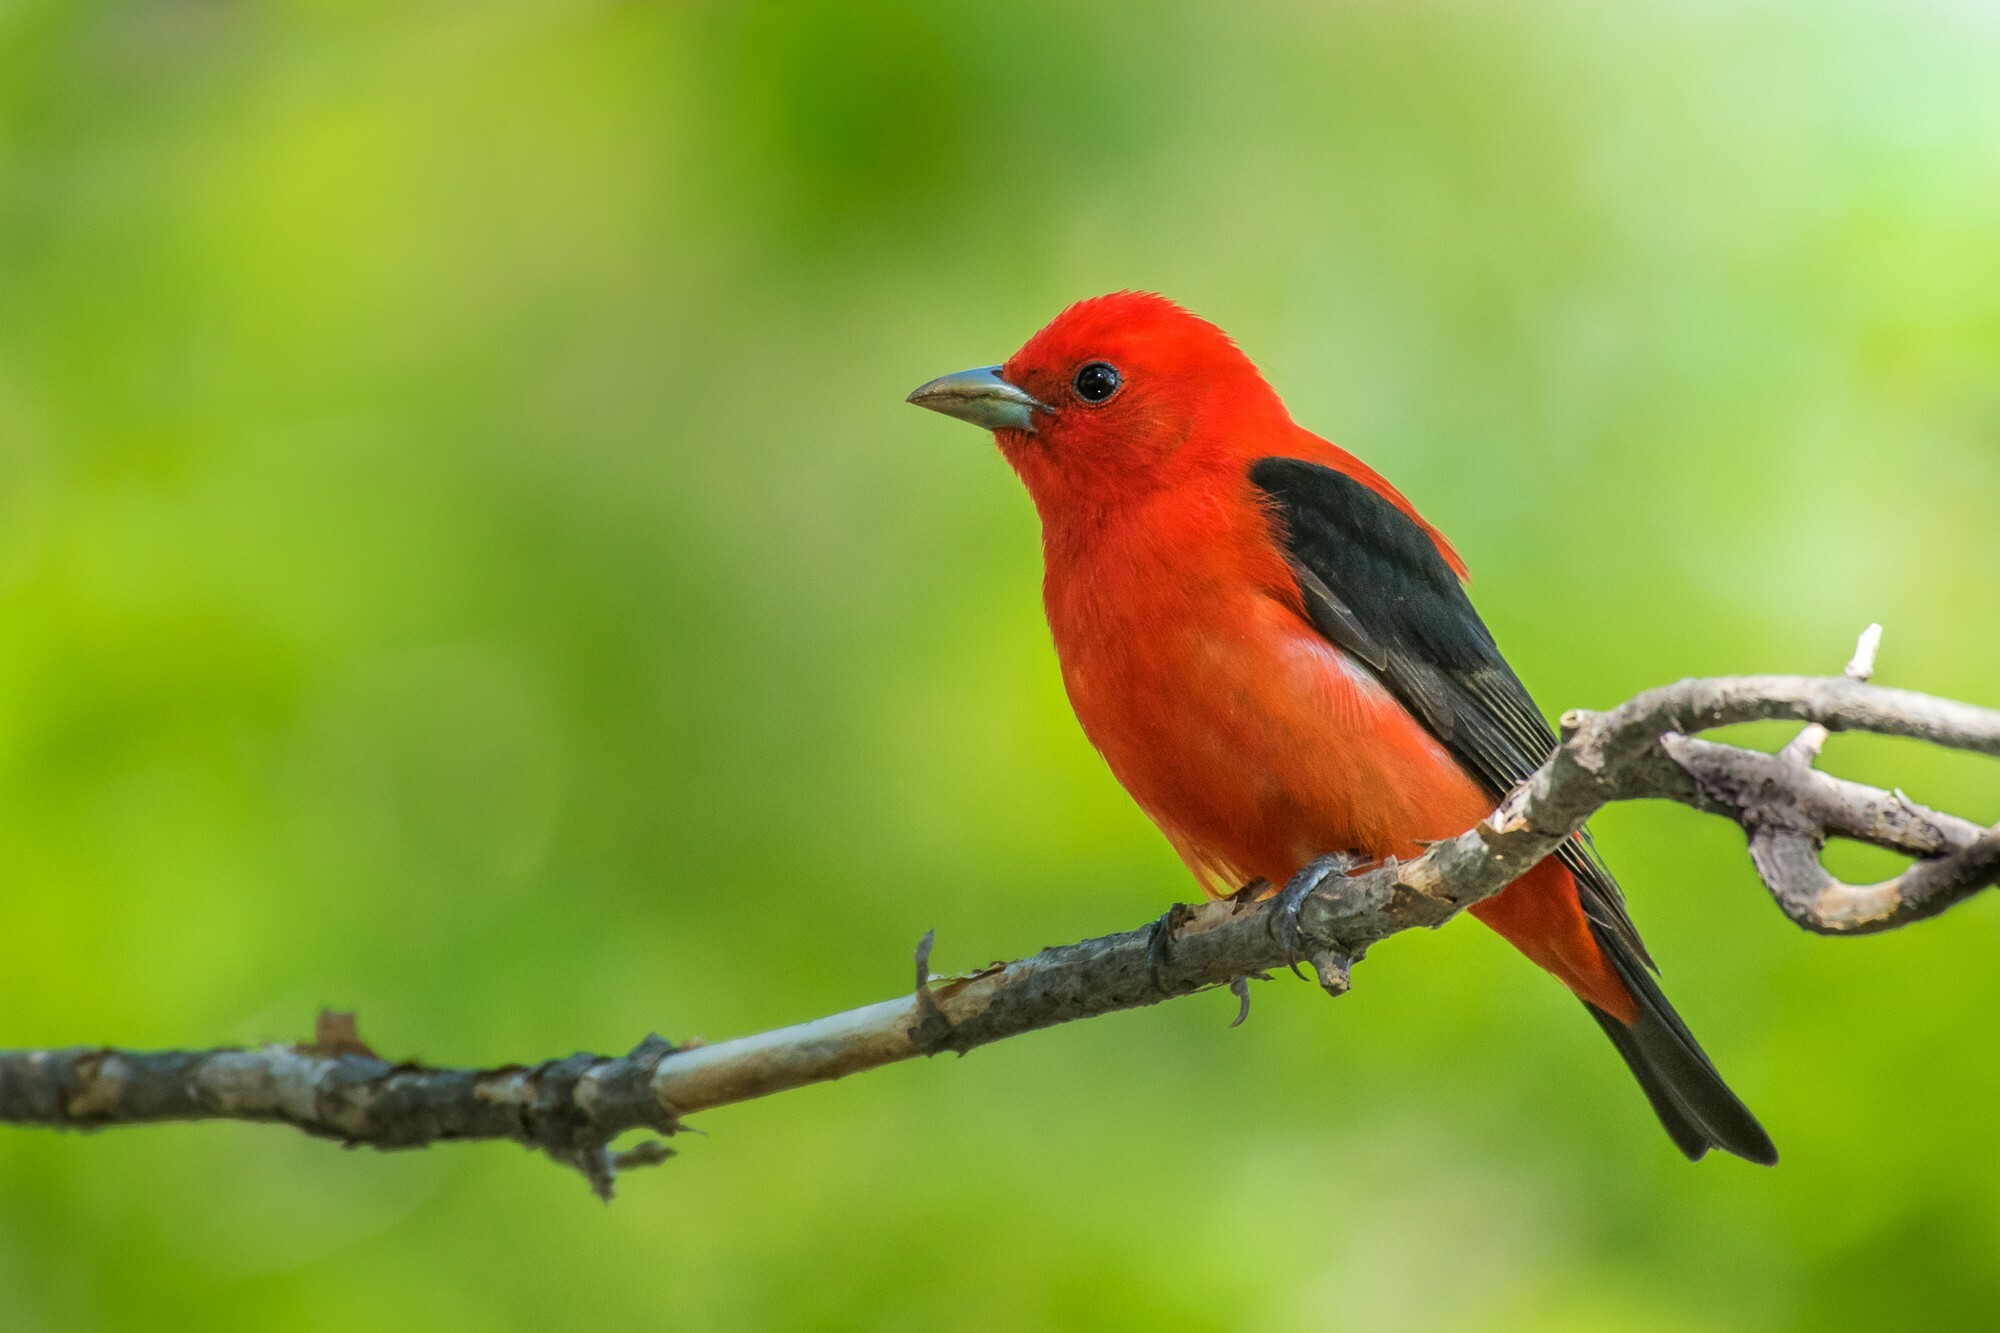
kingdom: Animalia
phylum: Chordata
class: Aves
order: Passeriformes
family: Cardinalidae
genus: Piranga
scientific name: Piranga olivacea
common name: Scarlet tanager
